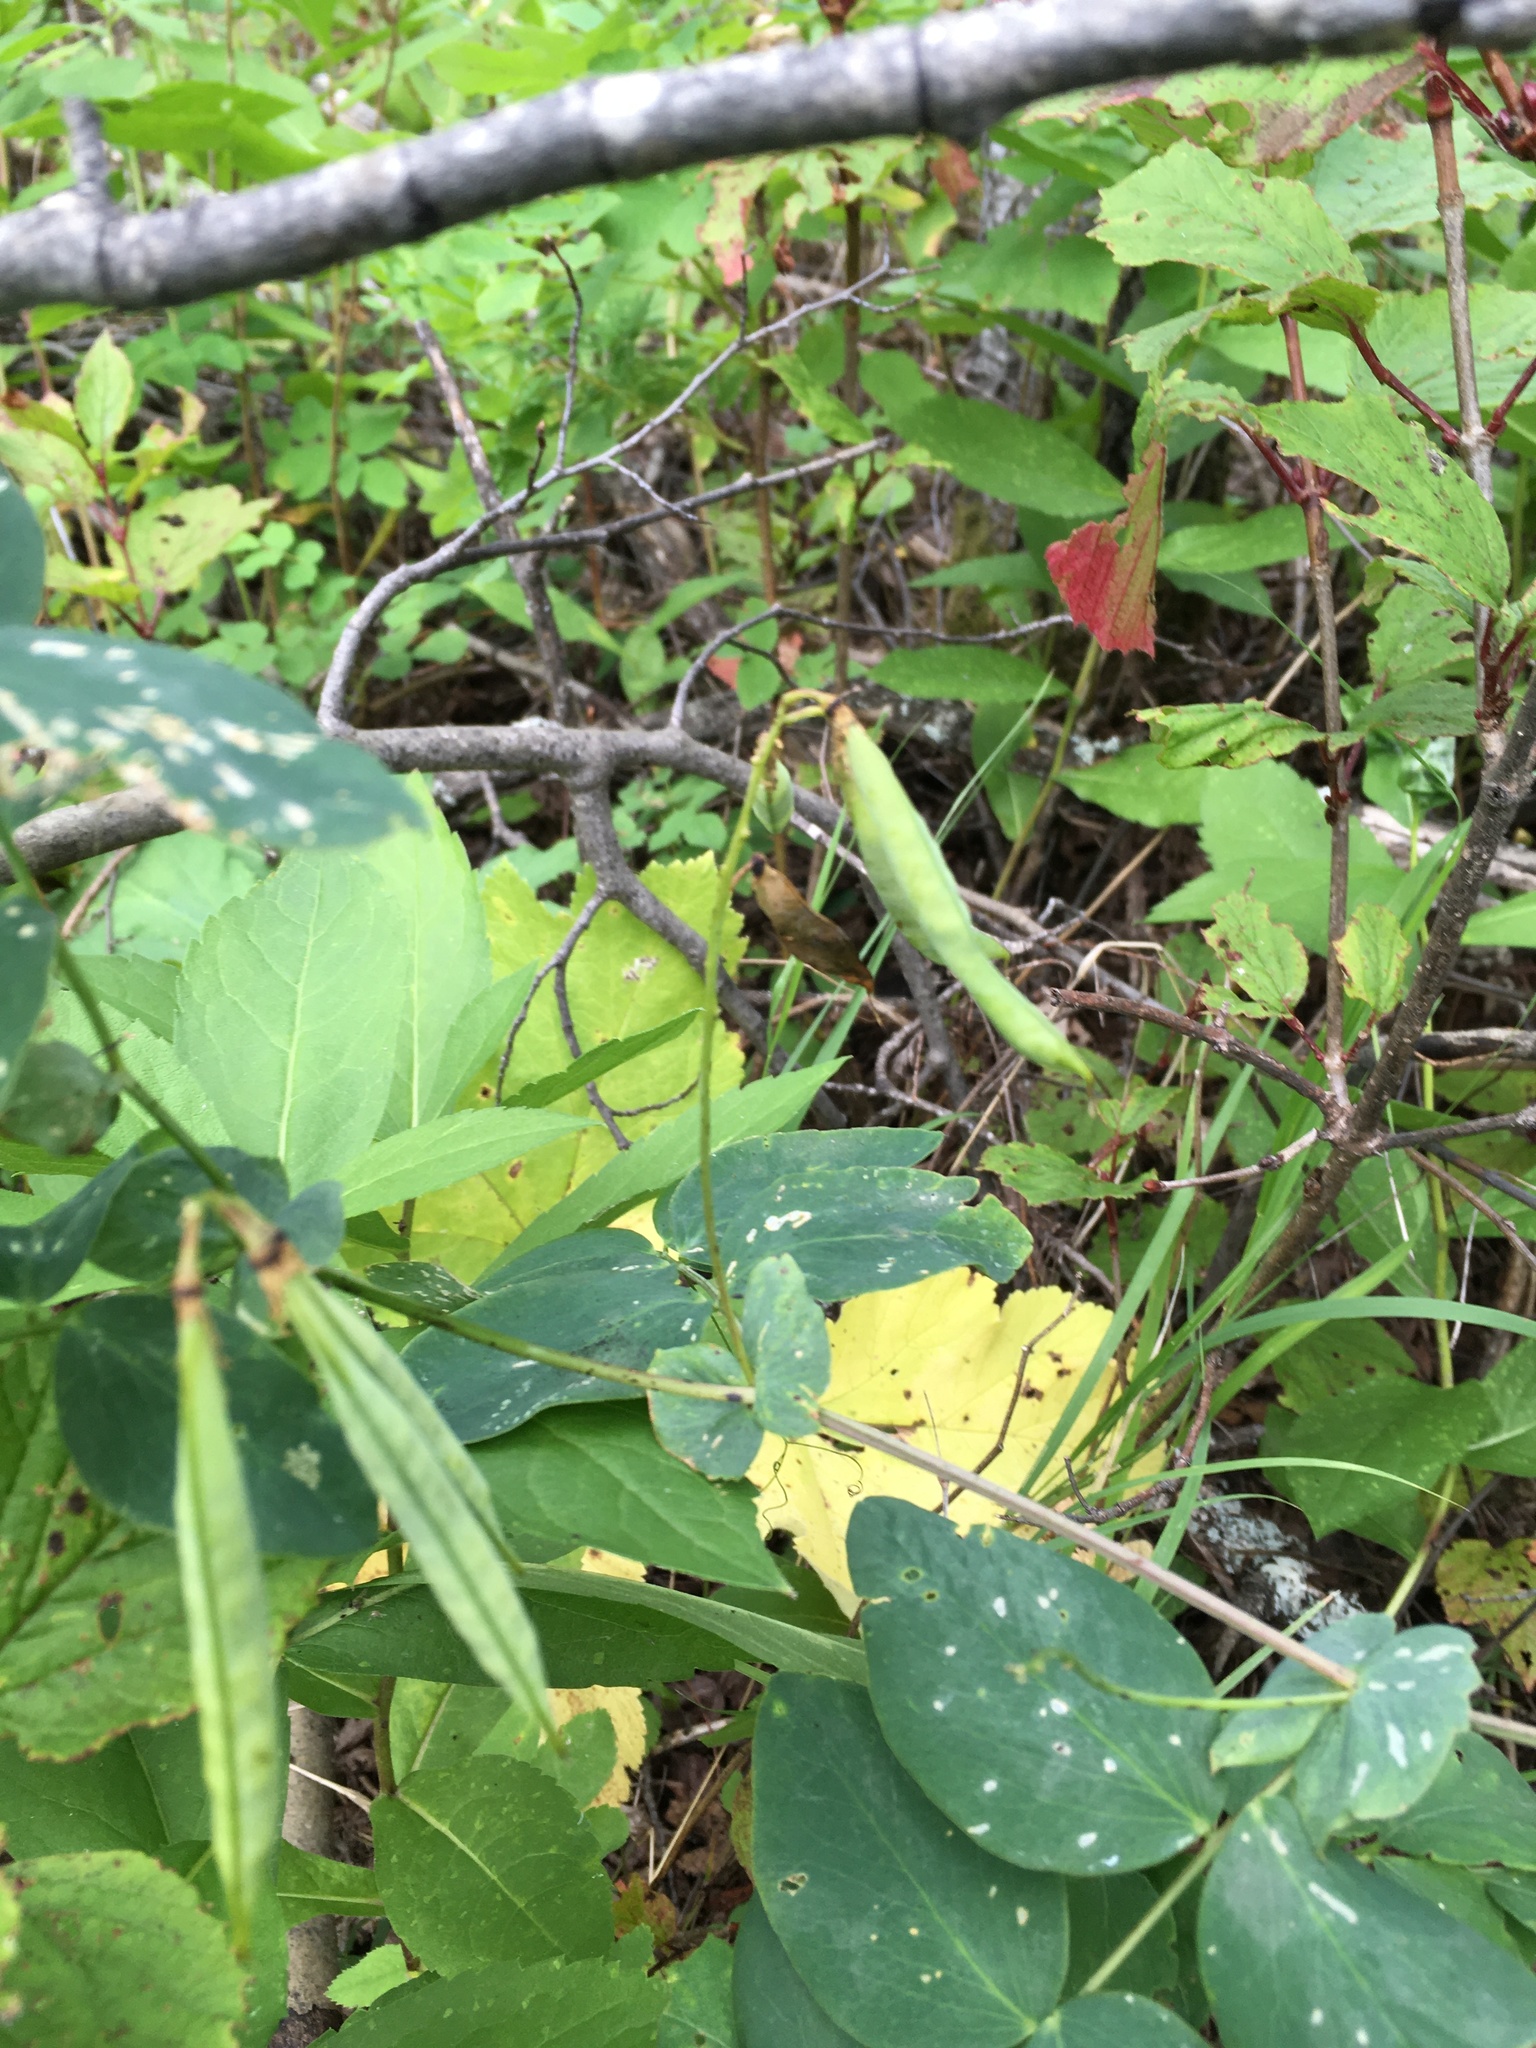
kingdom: Plantae
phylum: Tracheophyta
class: Magnoliopsida
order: Fabales
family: Fabaceae
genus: Lathyrus
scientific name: Lathyrus ochroleucus
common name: Pale vetchling
